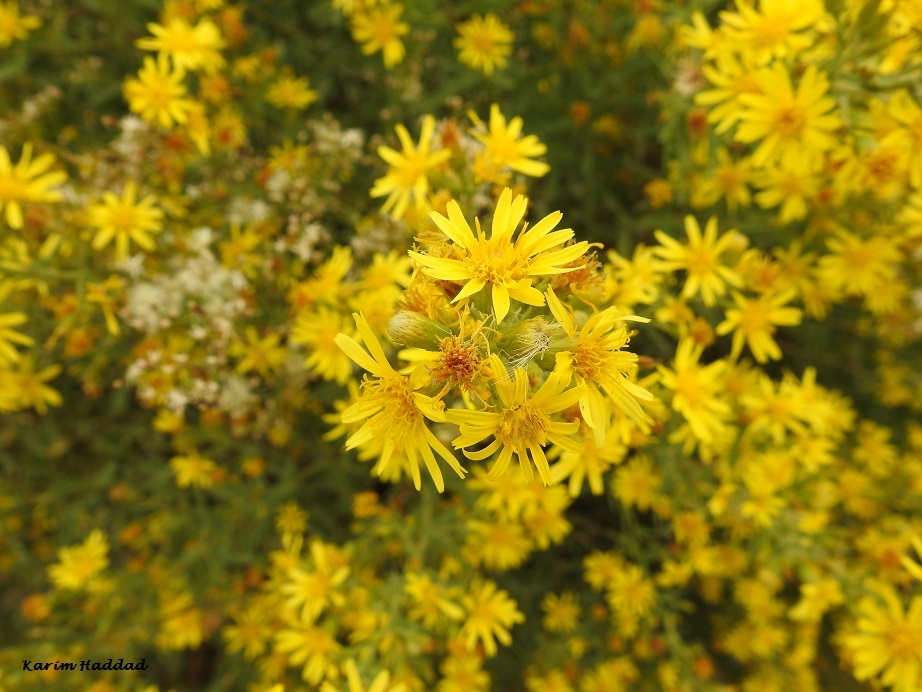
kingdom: Plantae
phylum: Tracheophyta
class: Magnoliopsida
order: Asterales
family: Asteraceae
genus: Dittrichia
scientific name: Dittrichia viscosa
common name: Woody fleabane
